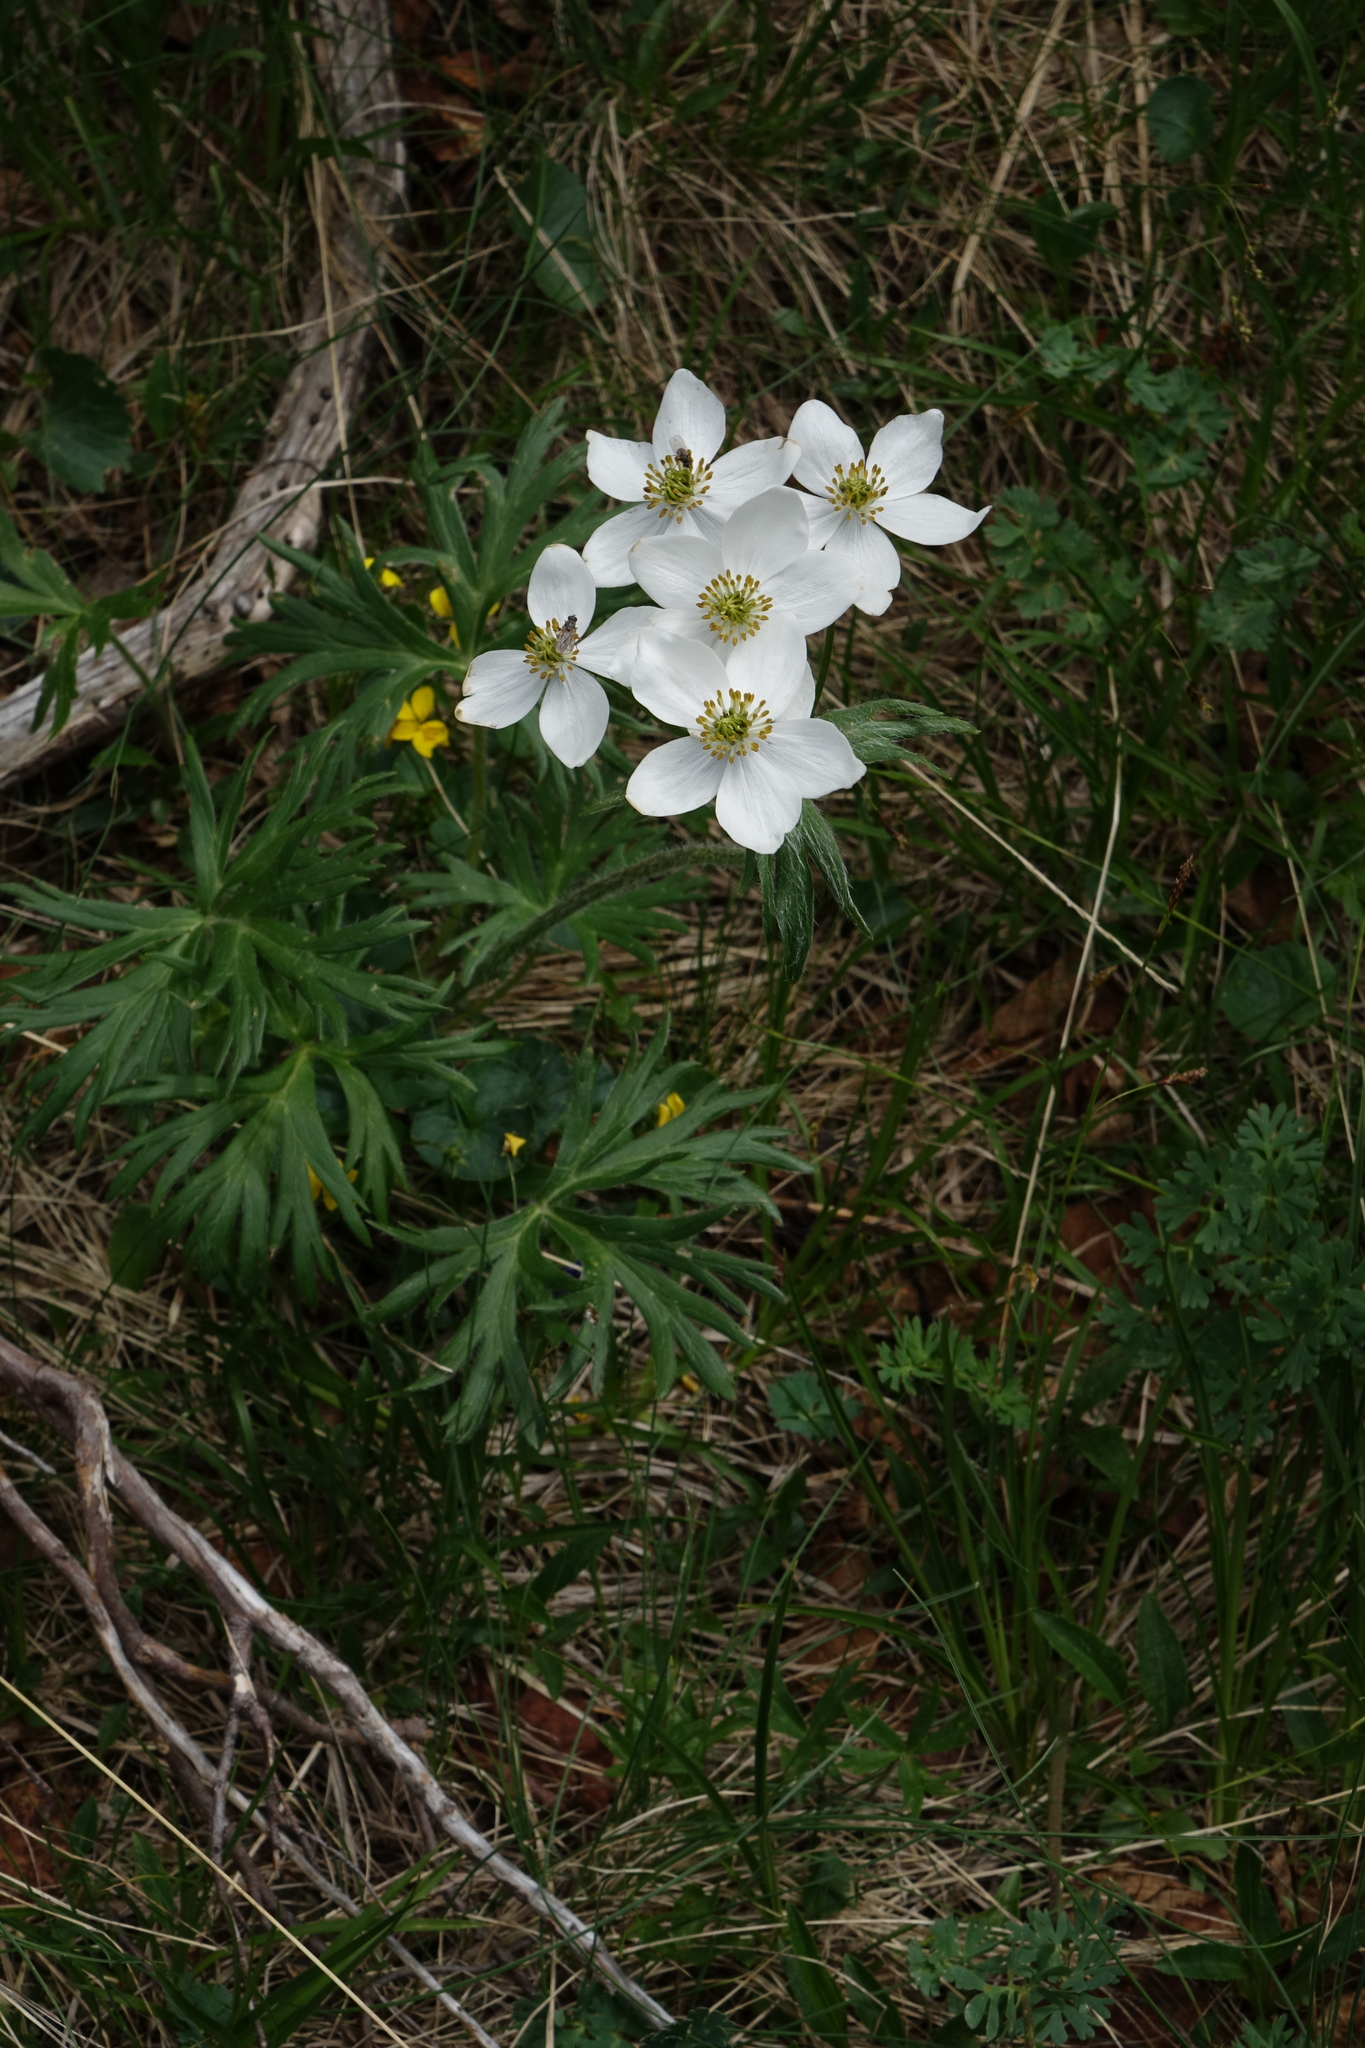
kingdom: Plantae
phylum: Tracheophyta
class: Magnoliopsida
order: Ranunculales
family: Ranunculaceae
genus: Anemonastrum
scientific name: Anemonastrum narcissiflorum
